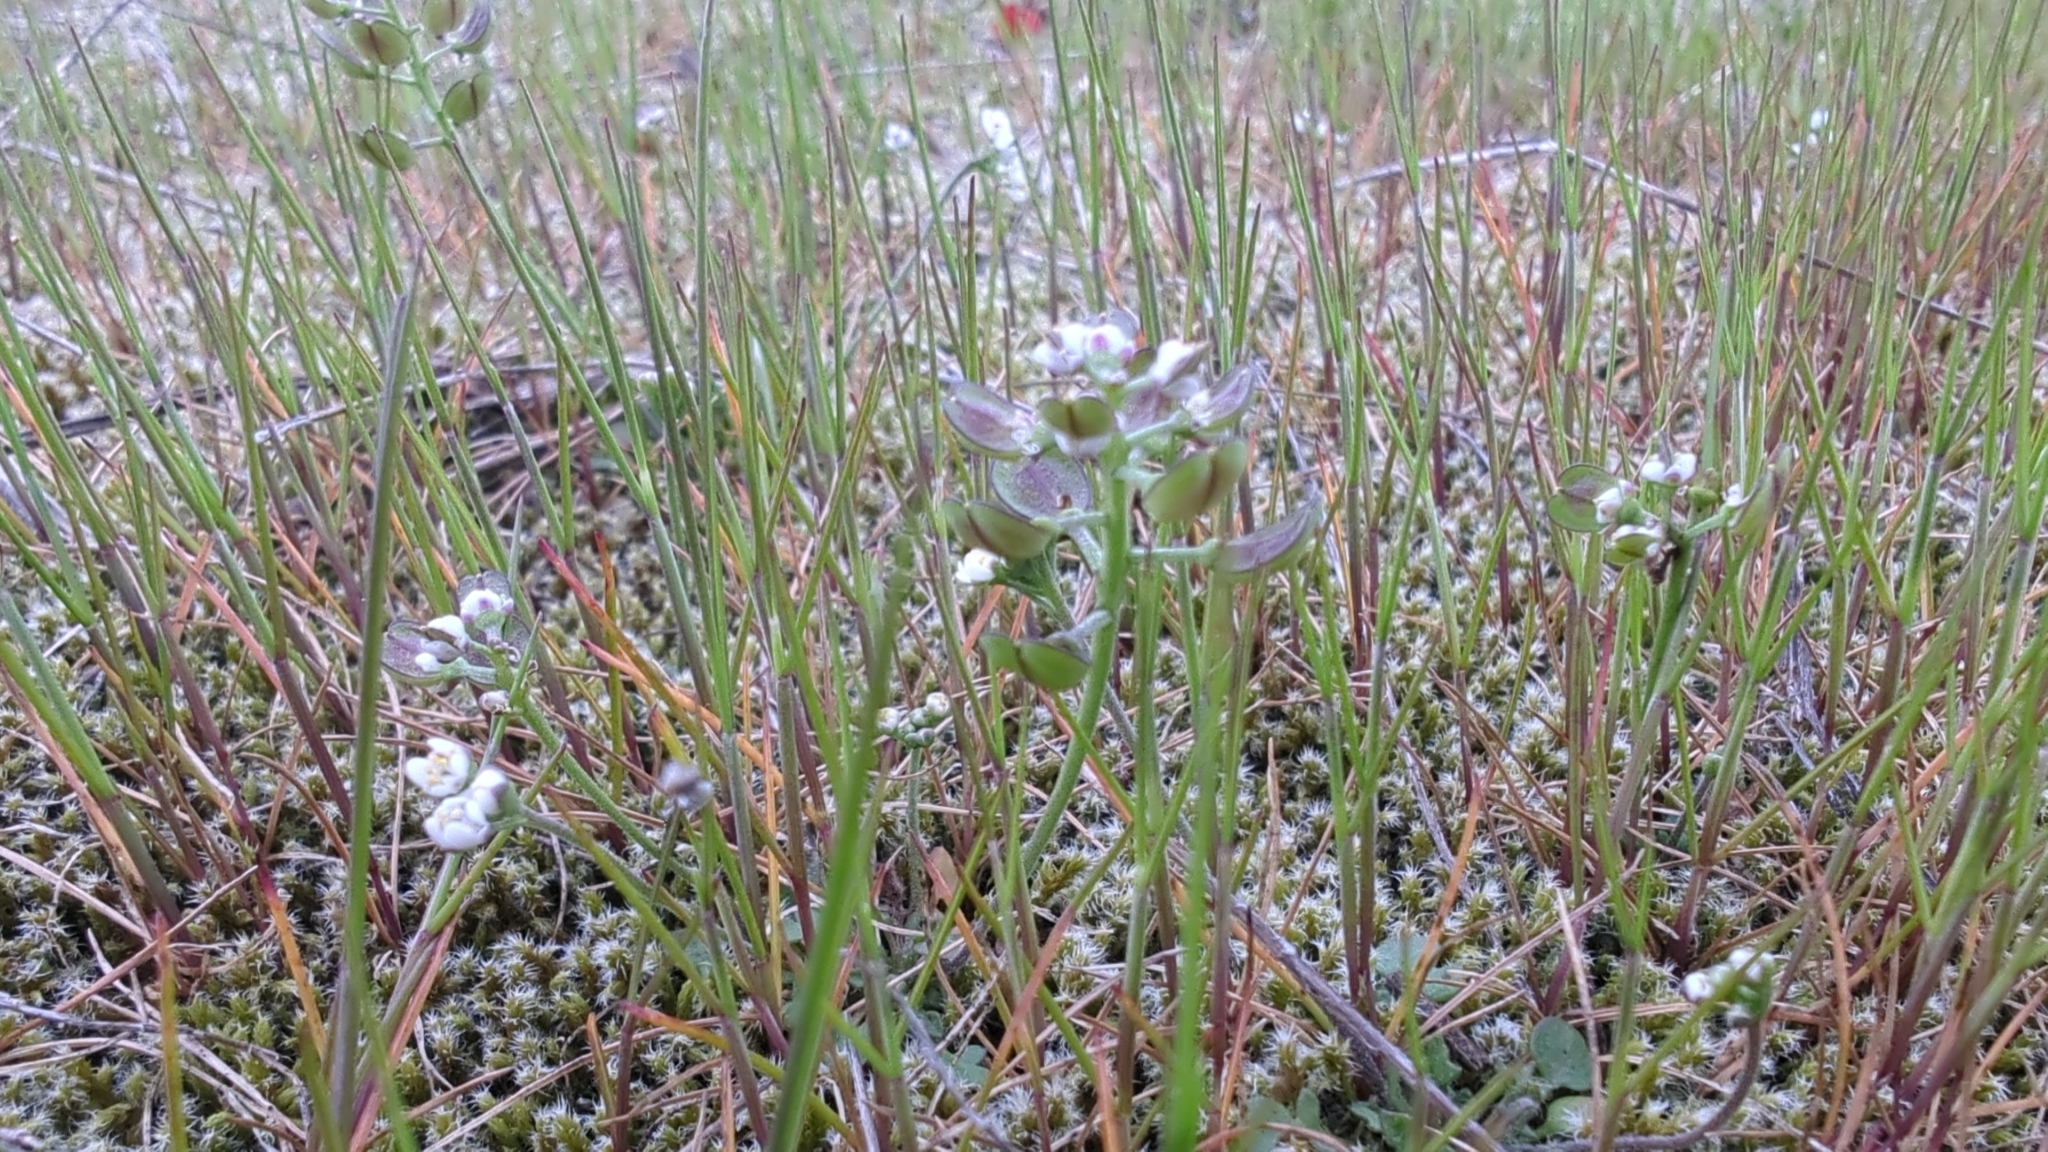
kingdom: Plantae
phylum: Tracheophyta
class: Magnoliopsida
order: Brassicales
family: Brassicaceae
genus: Teesdalia
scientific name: Teesdalia nudicaulis
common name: Shepherd's cress
